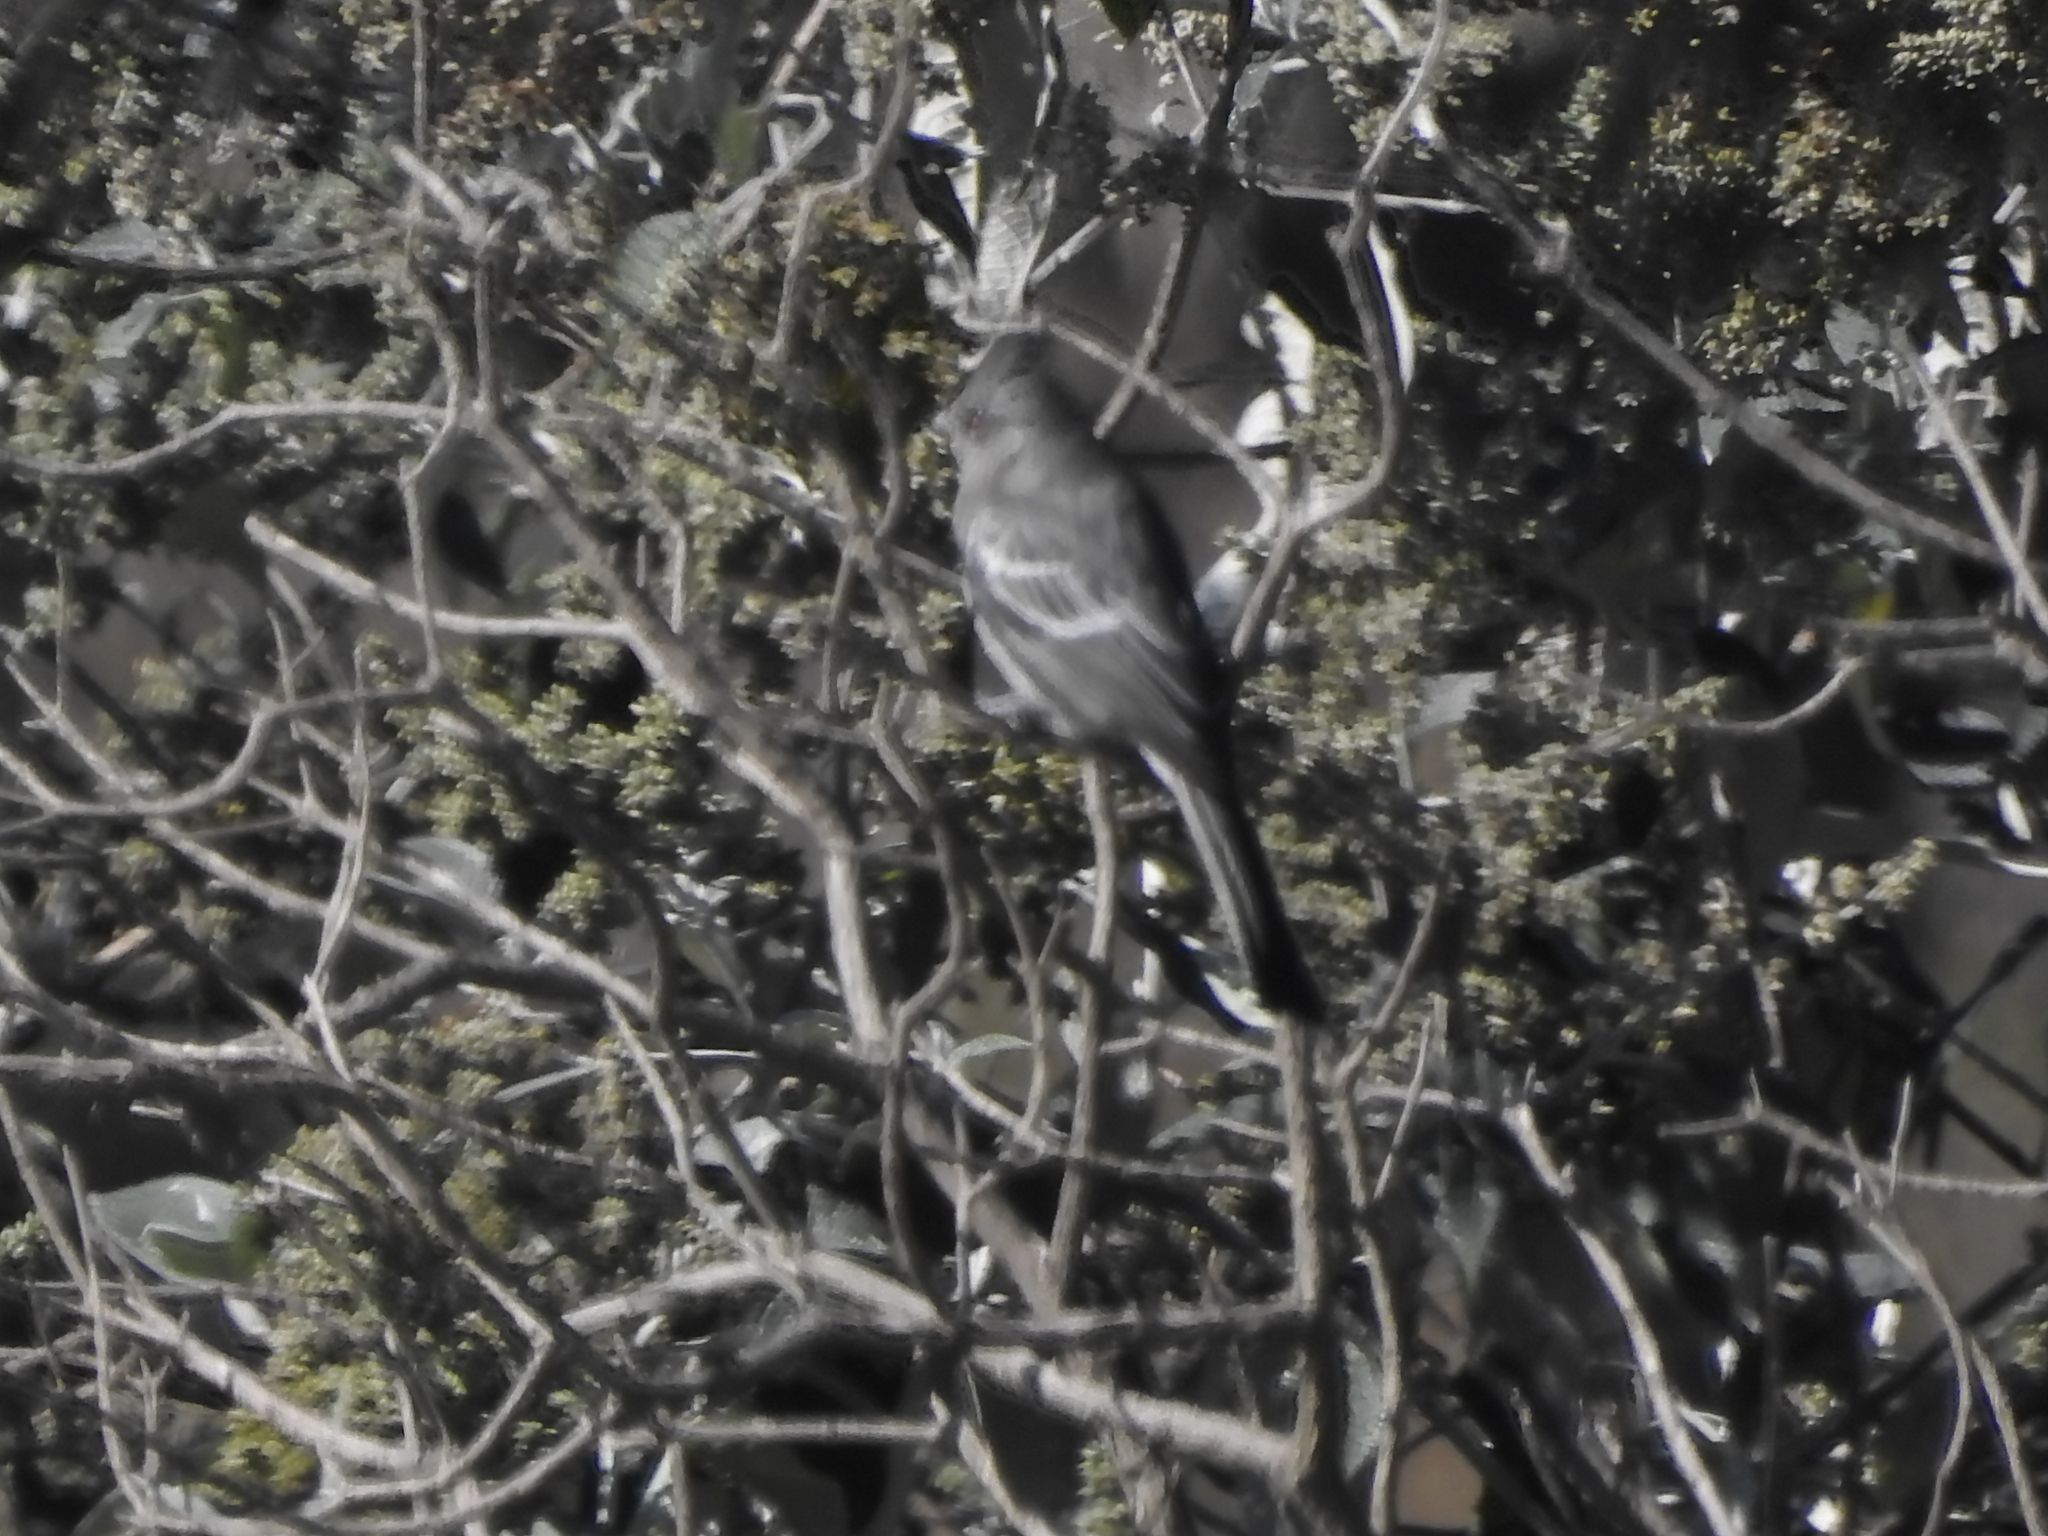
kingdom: Animalia
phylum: Chordata
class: Aves
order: Passeriformes
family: Ptilogonatidae
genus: Phainopepla
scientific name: Phainopepla nitens
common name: Phainopepla
